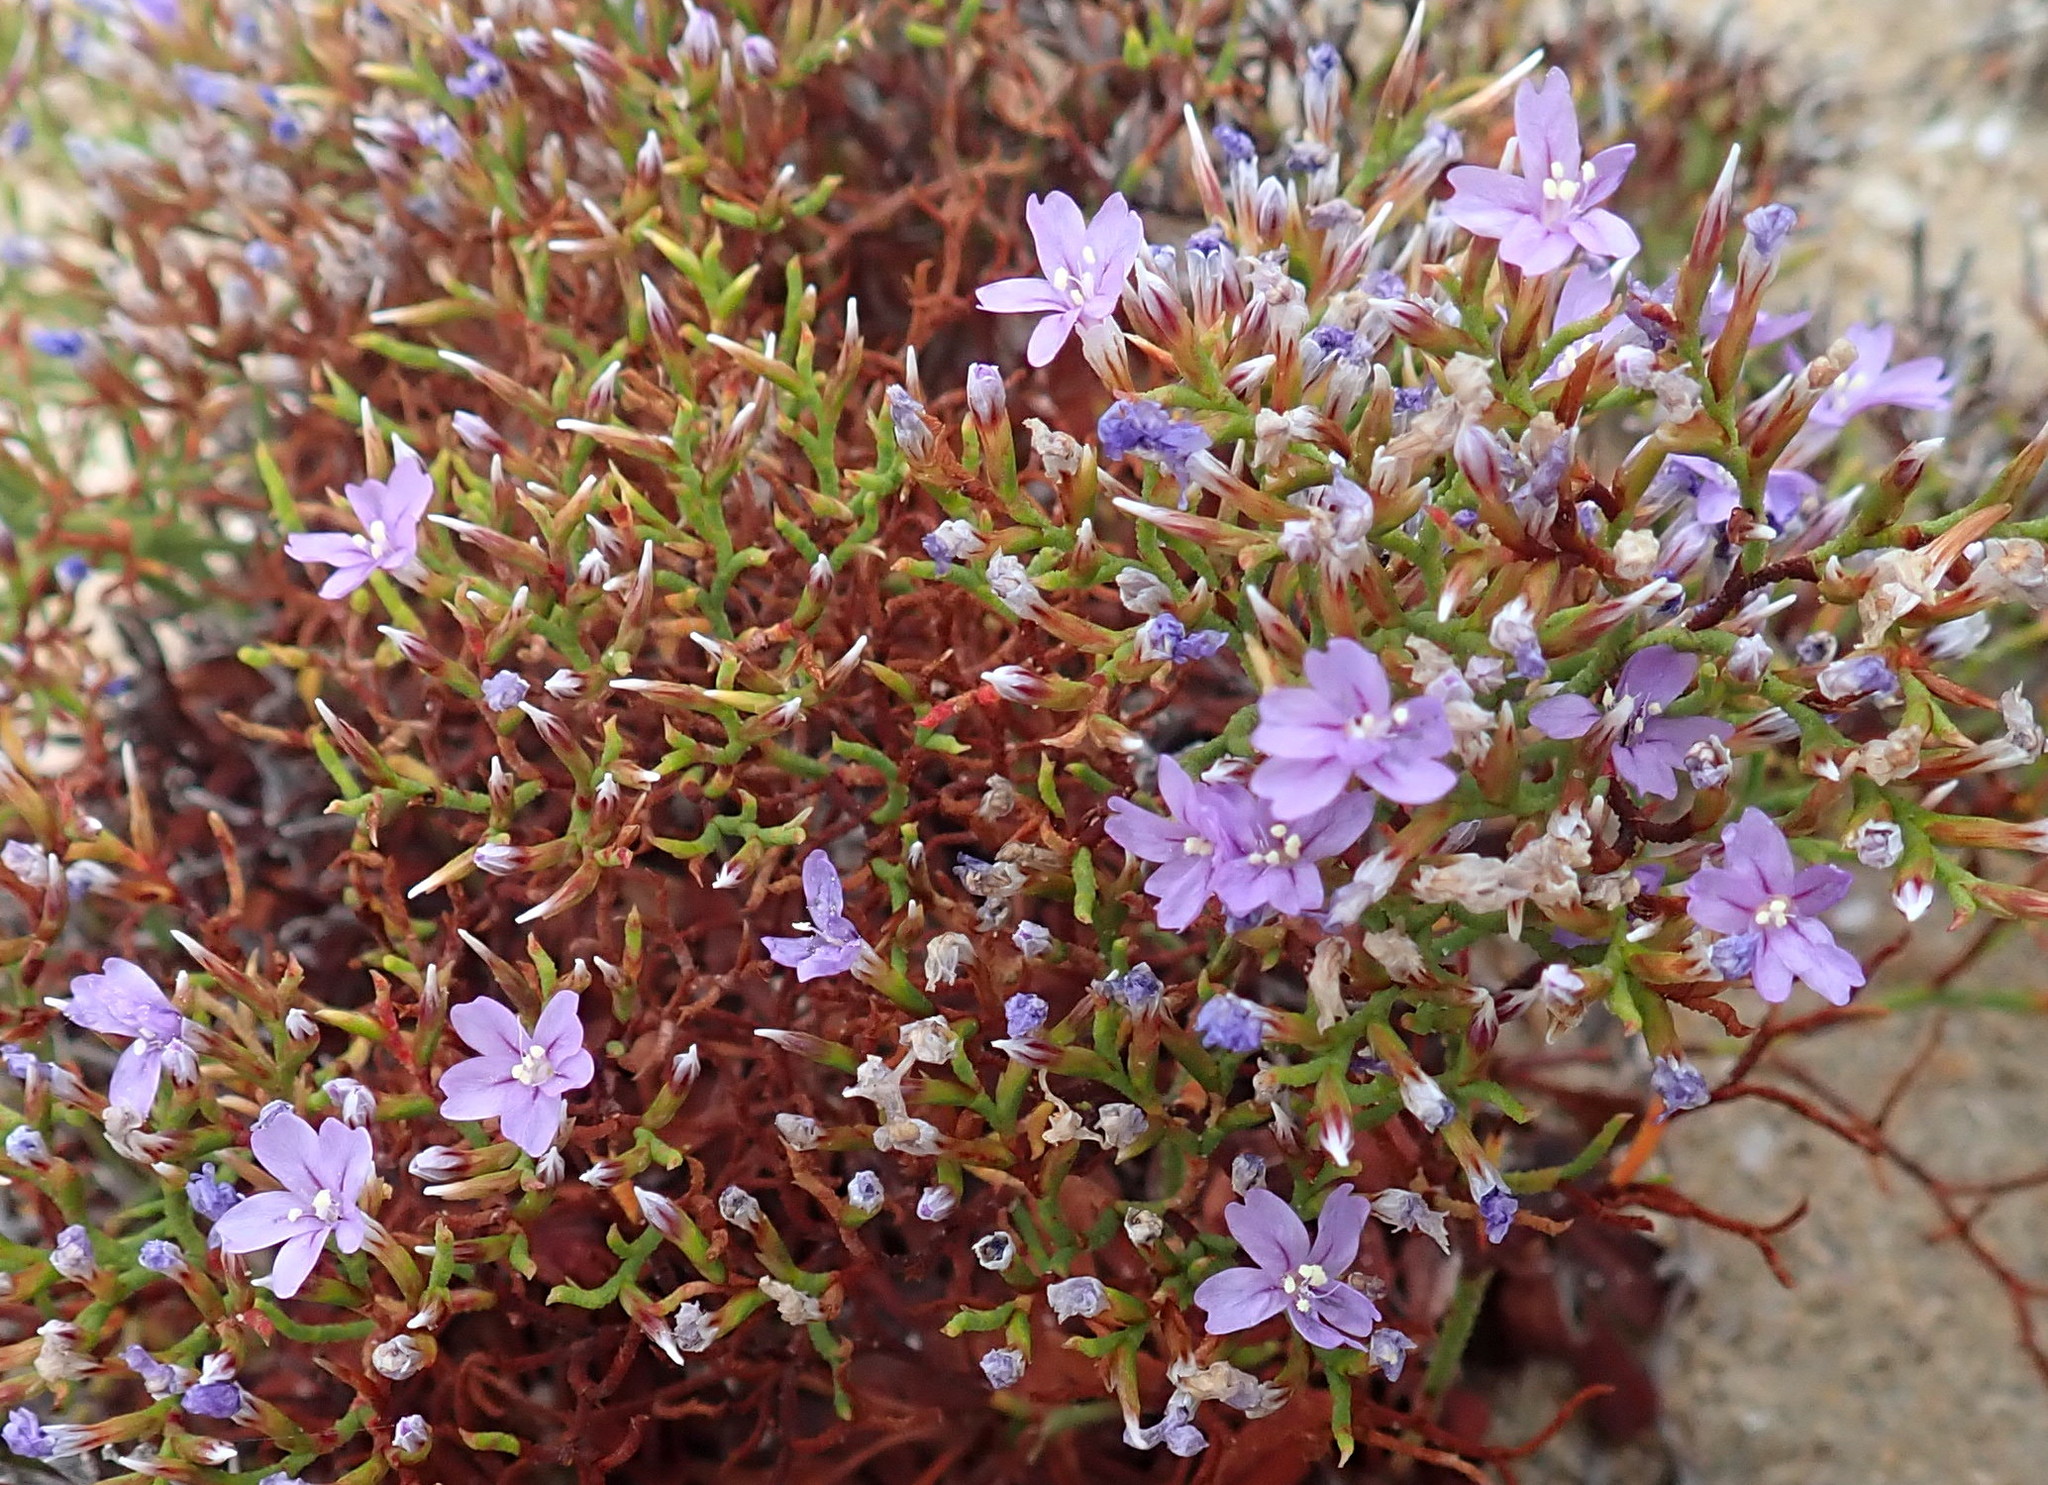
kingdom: Plantae
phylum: Tracheophyta
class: Magnoliopsida
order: Caryophyllales
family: Plumbaginaceae
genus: Limonium
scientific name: Limonium scabrum
